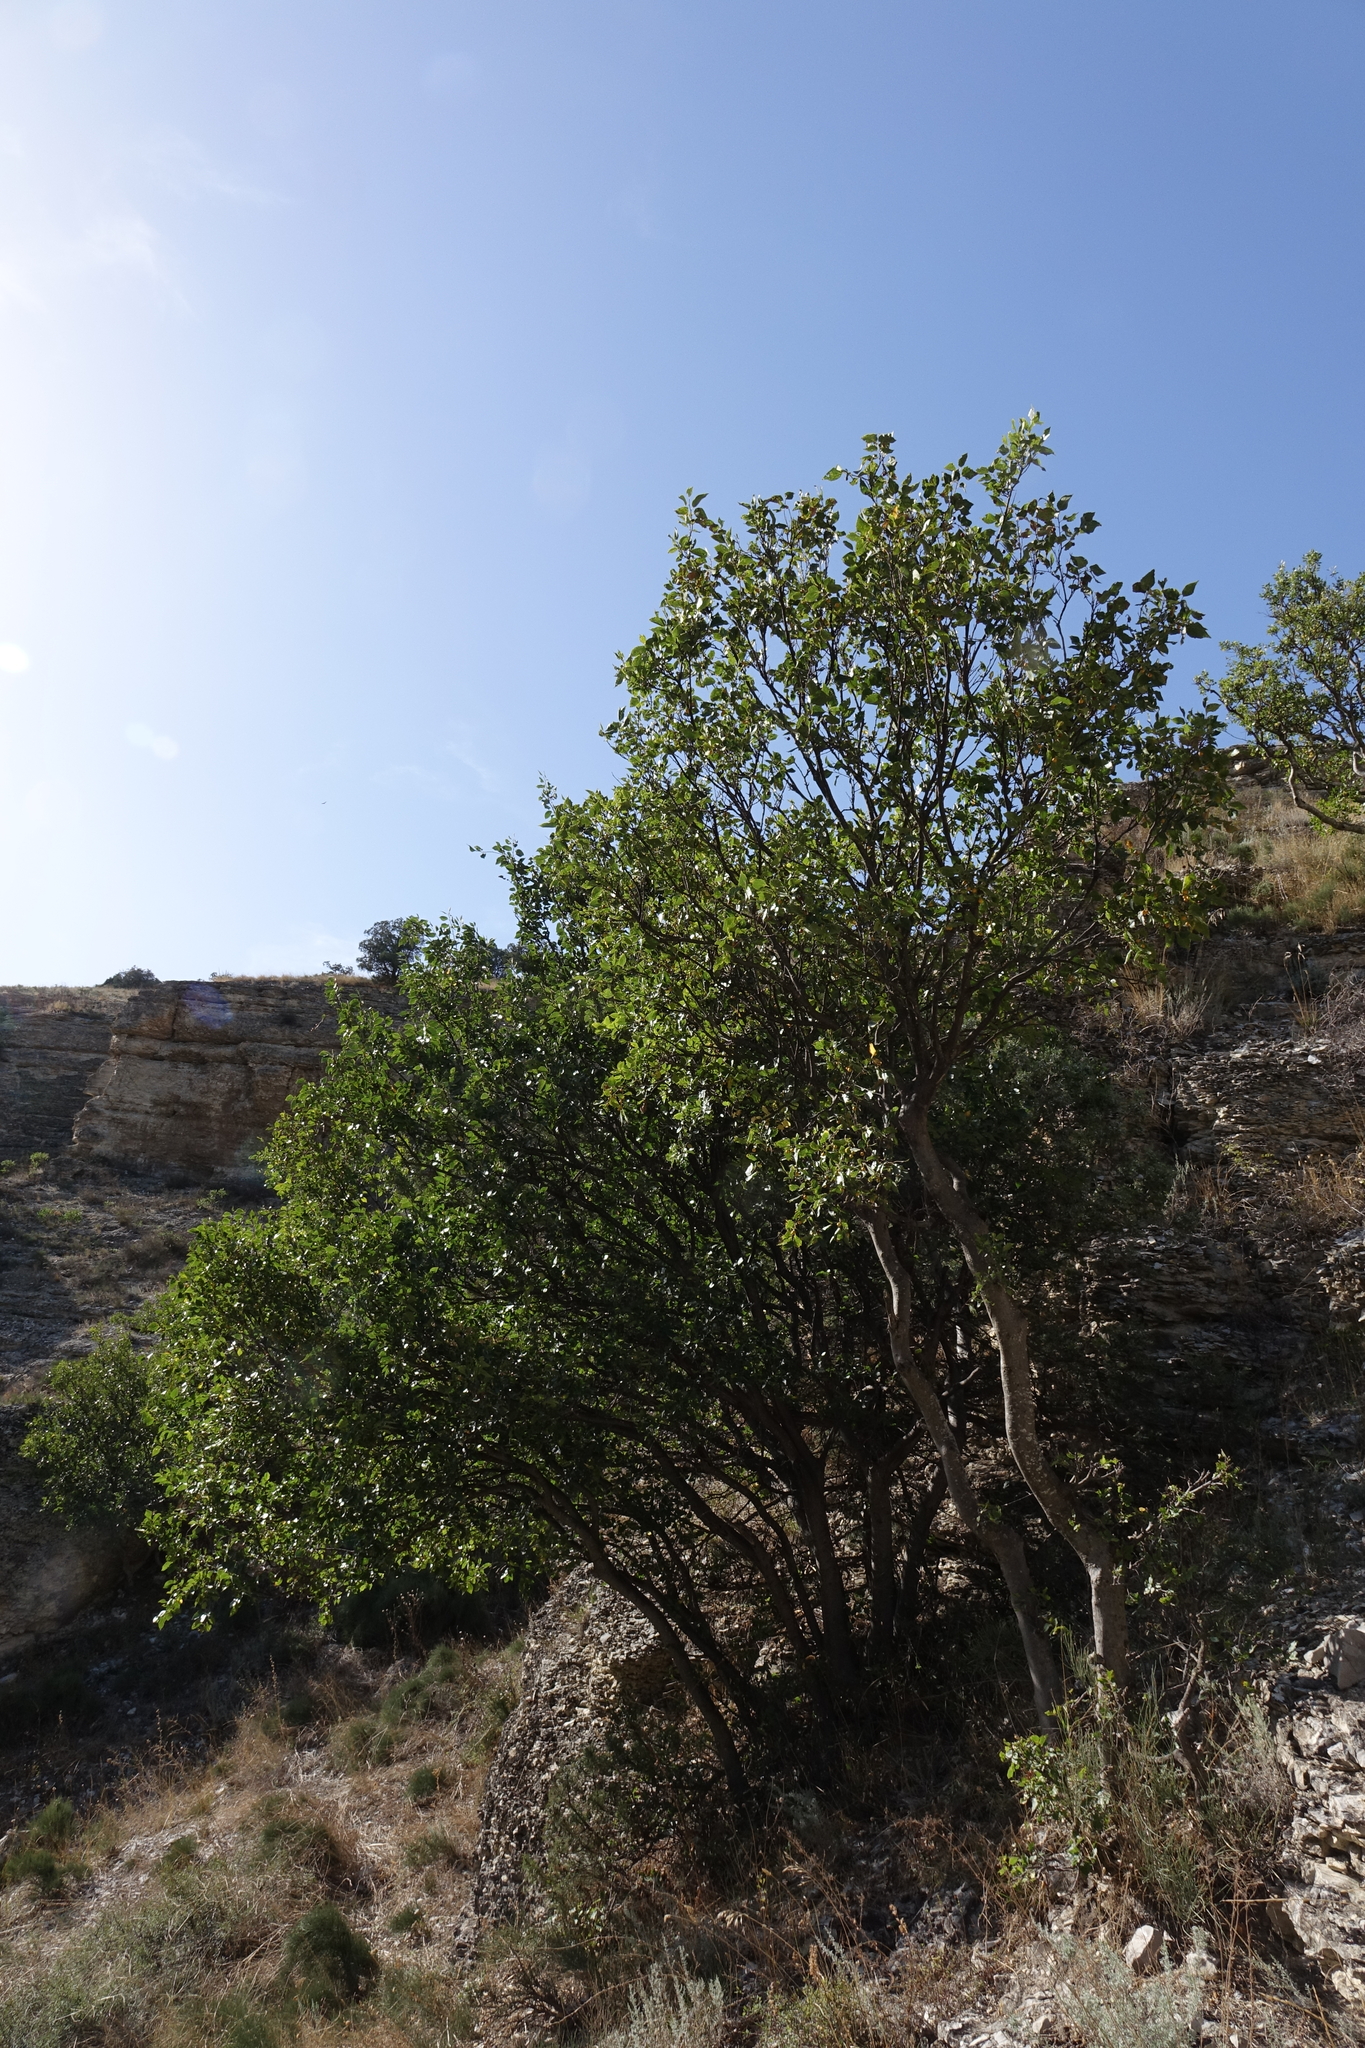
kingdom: Plantae
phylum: Tracheophyta
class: Magnoliopsida
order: Rosales
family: Cannabaceae
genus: Celtis
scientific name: Celtis glabrata
